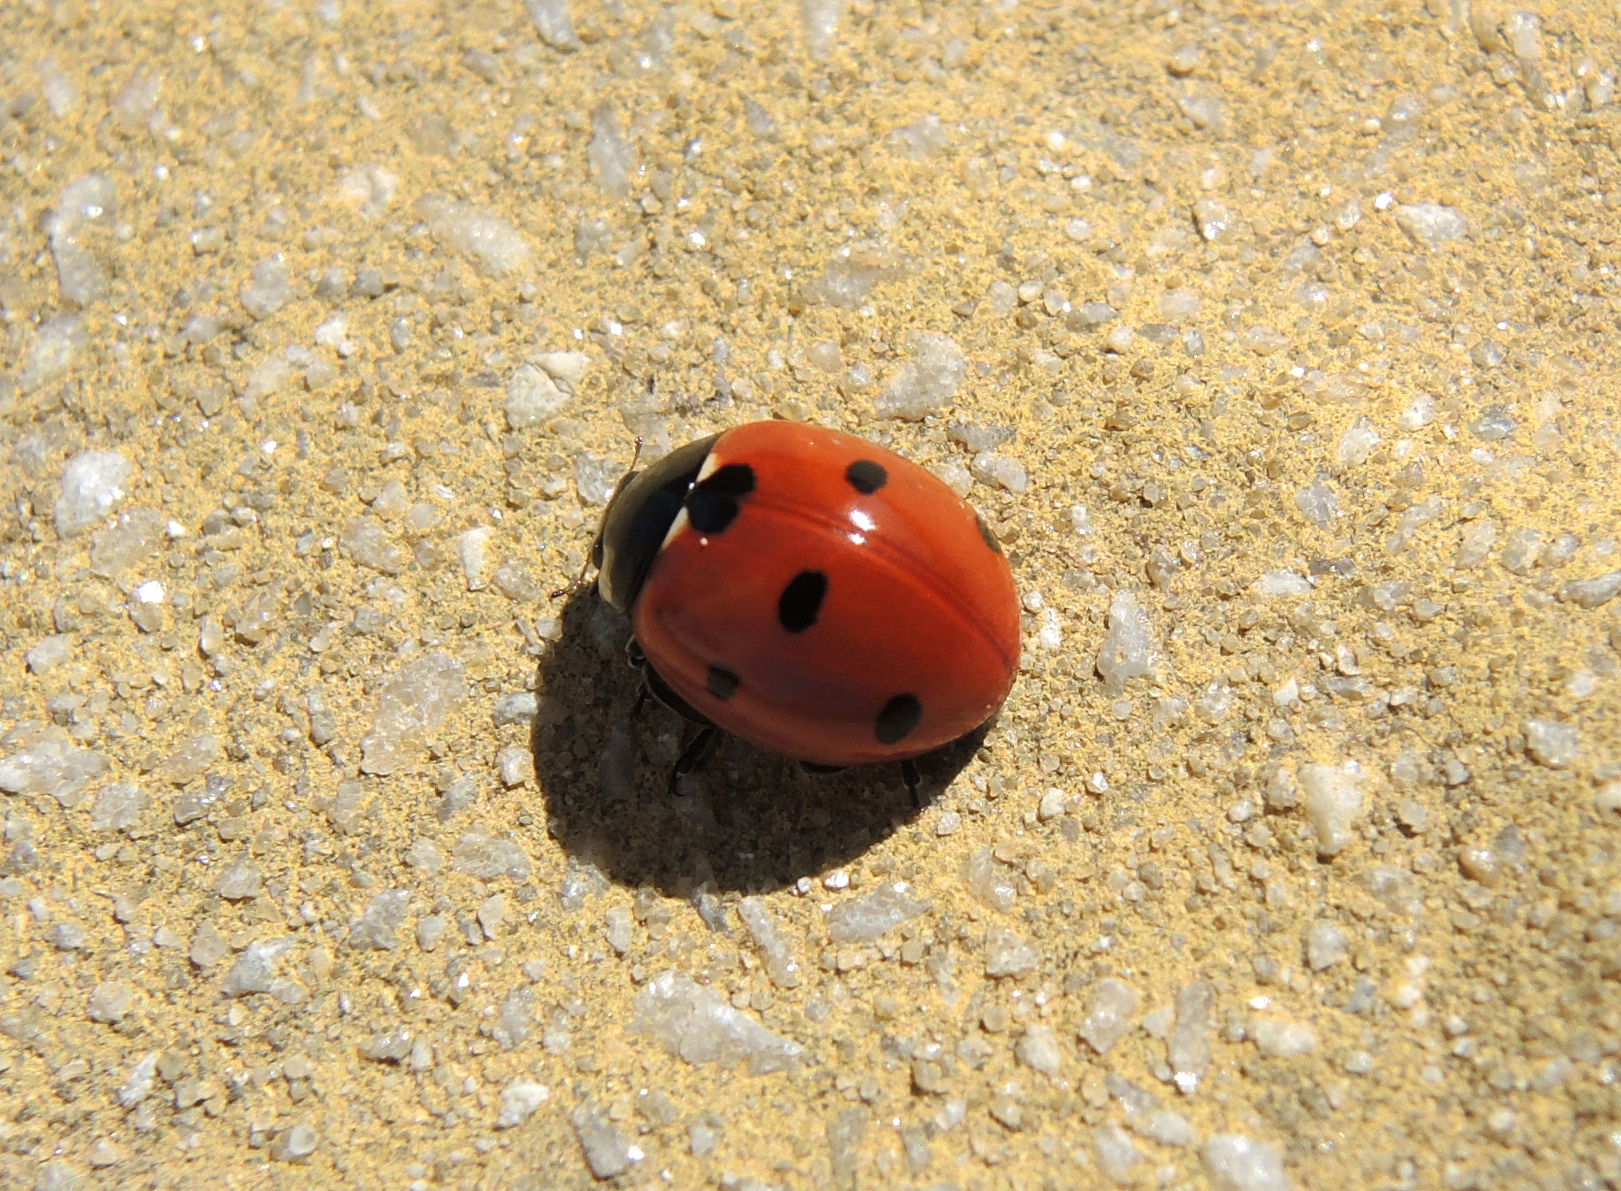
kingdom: Animalia
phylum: Arthropoda
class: Insecta
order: Coleoptera
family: Coccinellidae
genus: Coccinella
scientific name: Coccinella septempunctata
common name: Sevenspotted lady beetle
